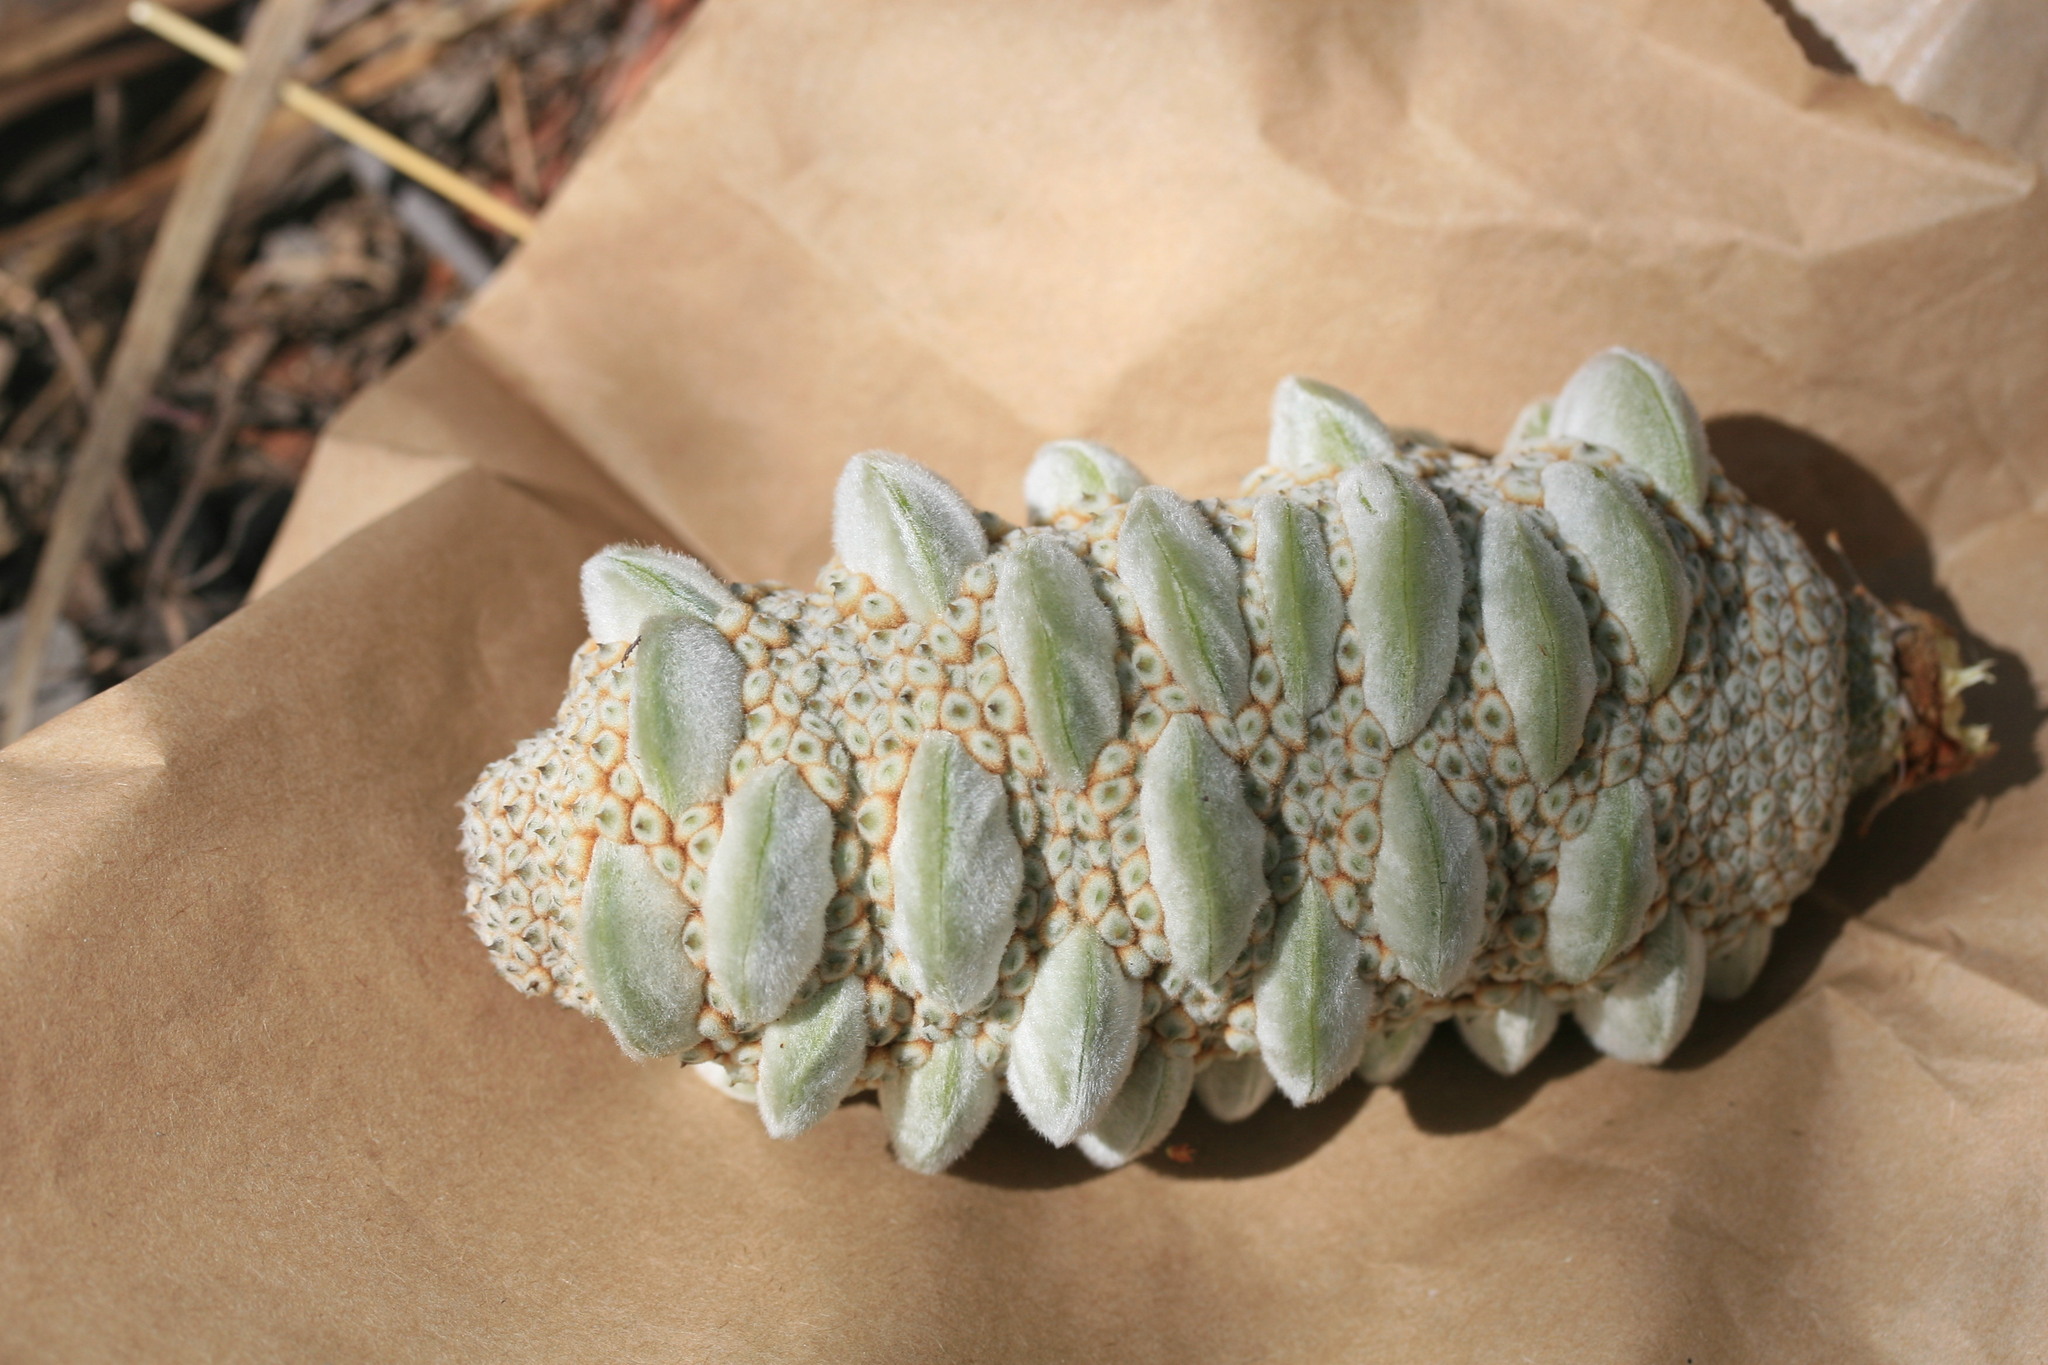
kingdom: Plantae
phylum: Tracheophyta
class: Magnoliopsida
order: Proteales
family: Proteaceae
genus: Banksia
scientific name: Banksia dentata
